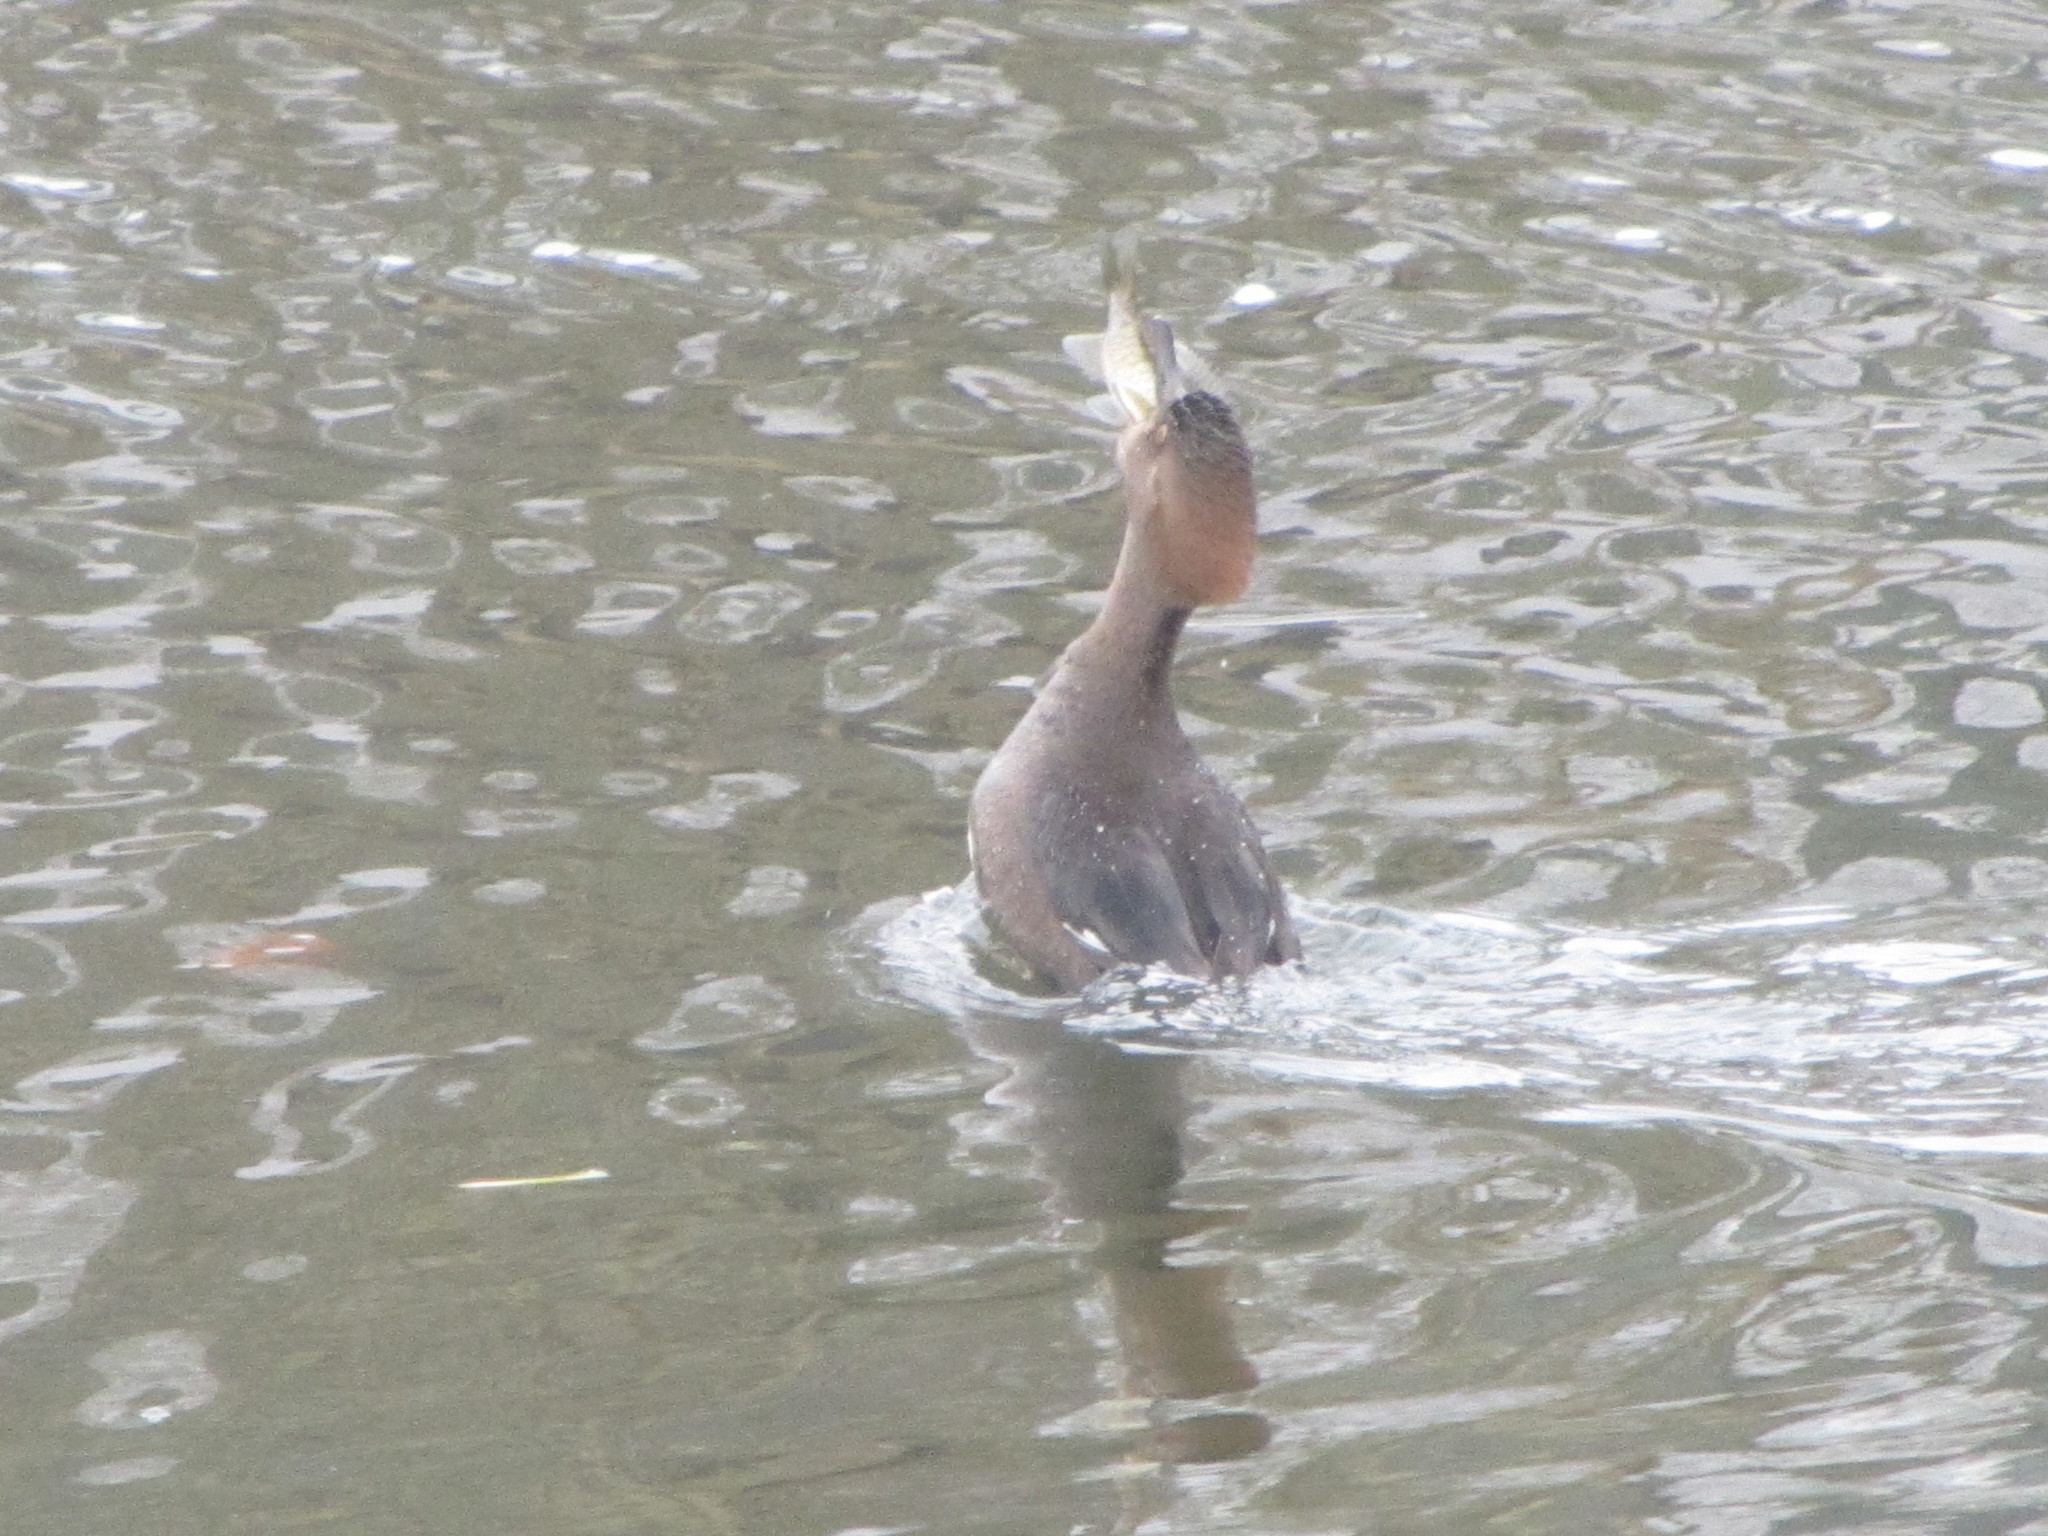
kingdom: Animalia
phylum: Chordata
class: Aves
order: Anseriformes
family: Anatidae
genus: Lophodytes
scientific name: Lophodytes cucullatus
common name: Hooded merganser
